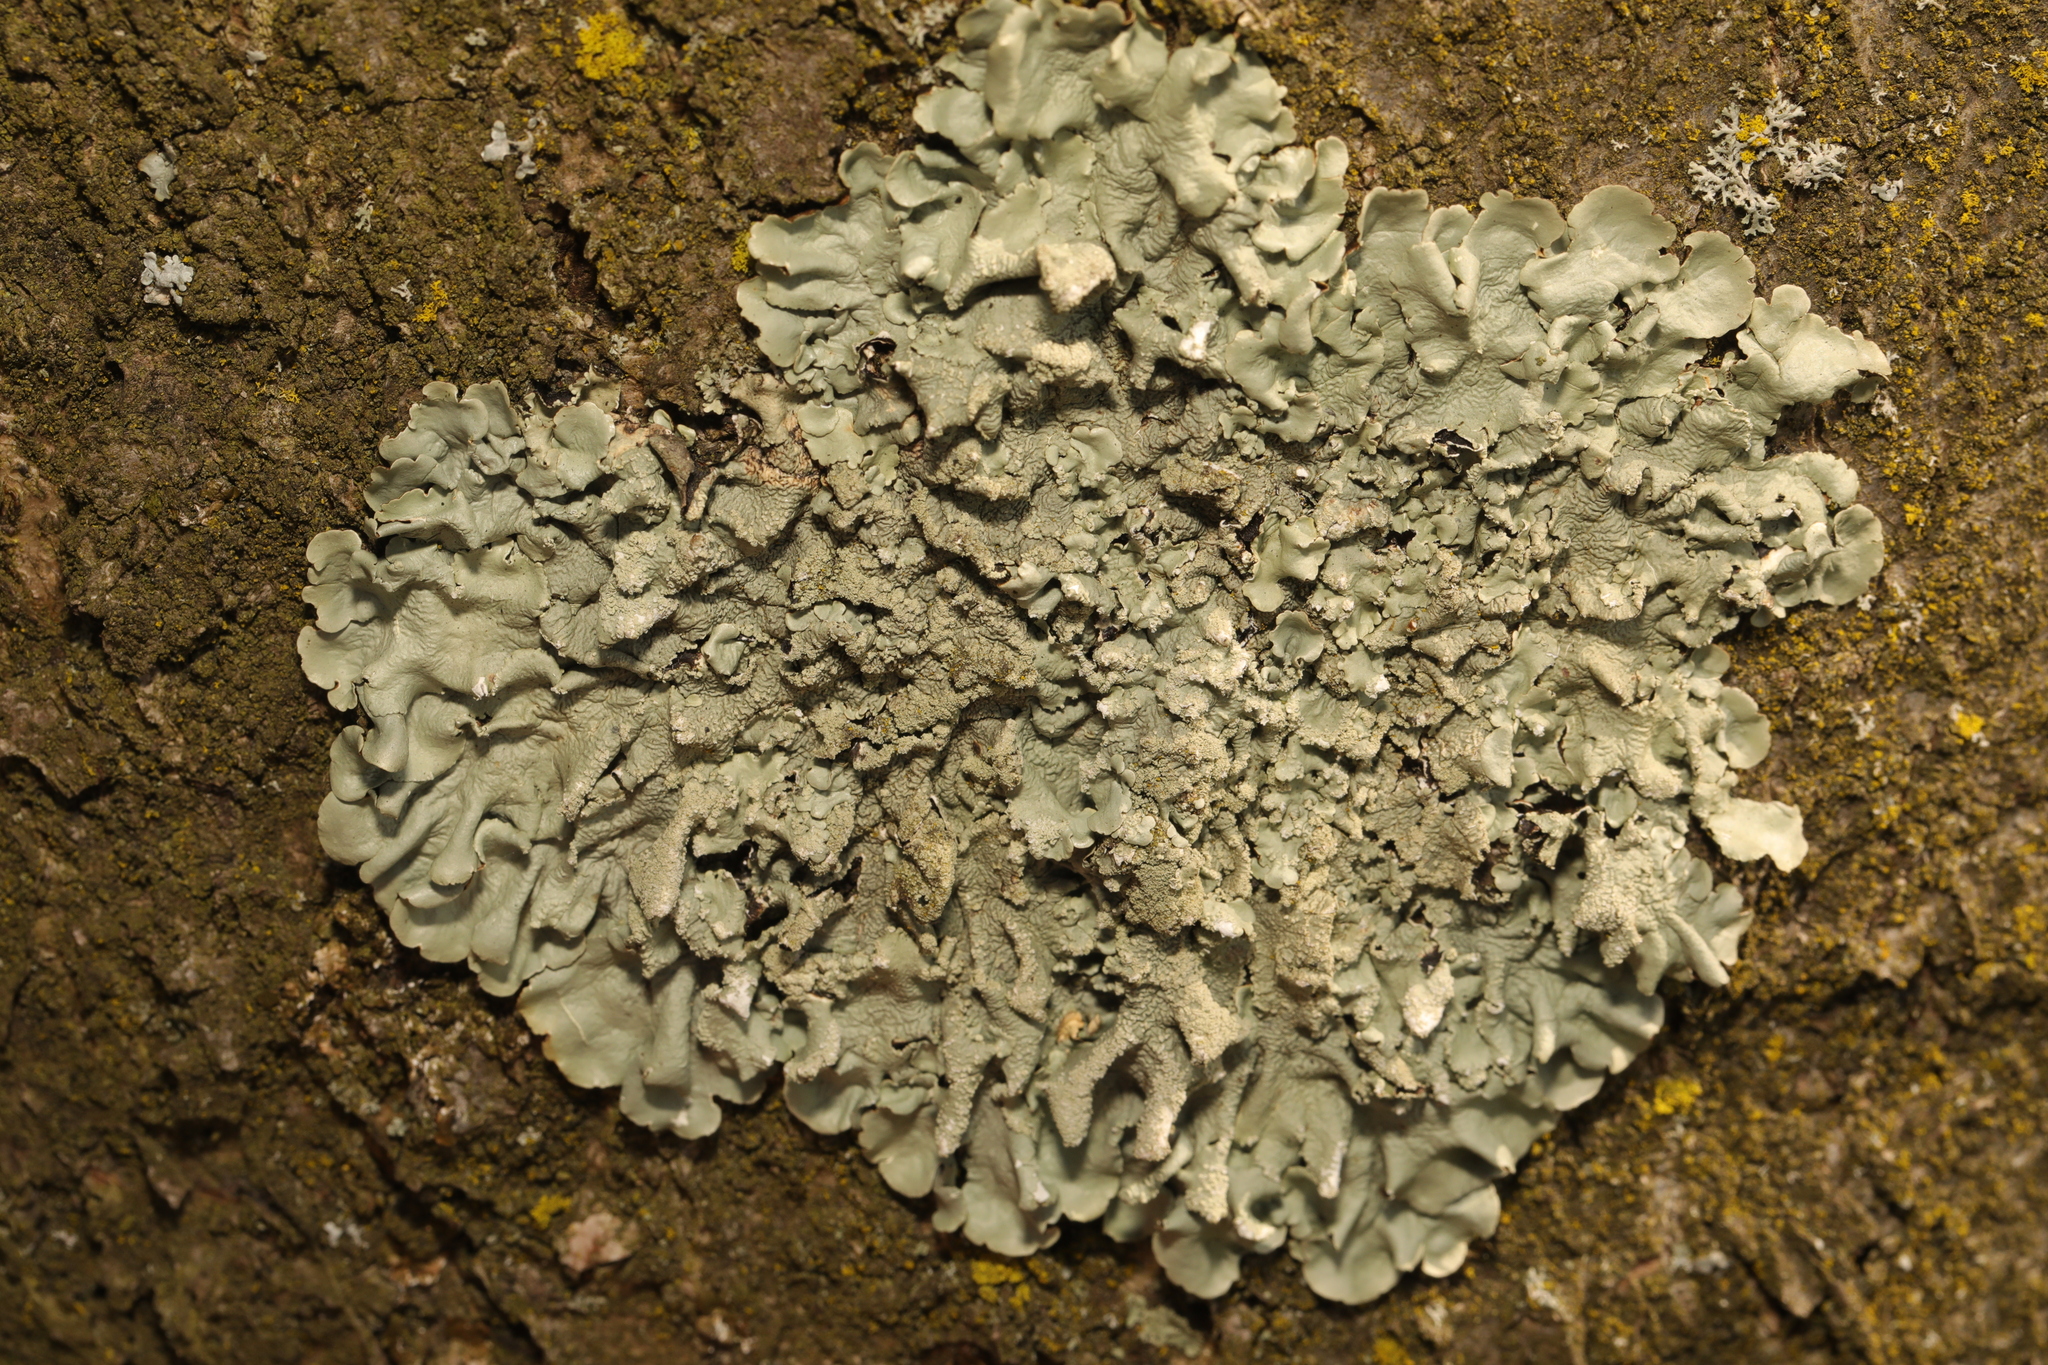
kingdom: Fungi
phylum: Ascomycota
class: Lecanoromycetes
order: Lecanorales
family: Parmeliaceae
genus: Flavoparmelia
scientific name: Flavoparmelia caperata
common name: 40-mile per hour lichen
